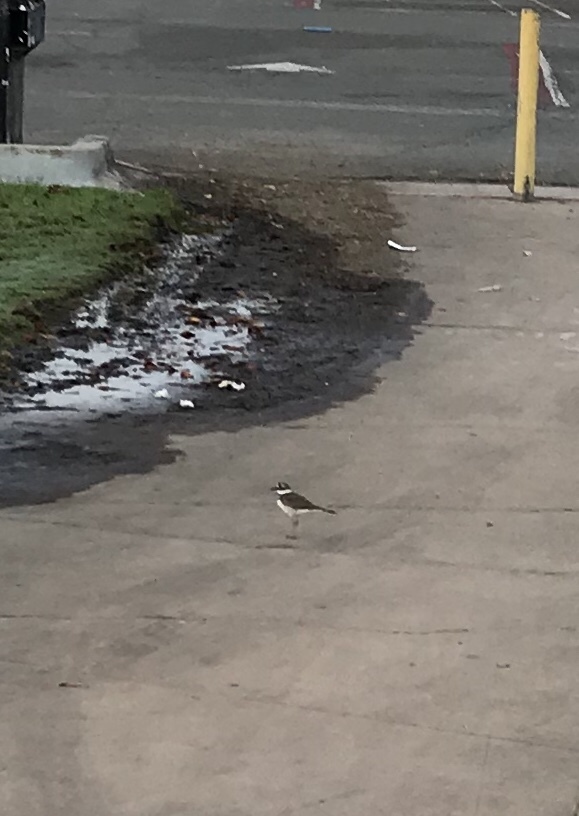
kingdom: Animalia
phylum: Chordata
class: Aves
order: Charadriiformes
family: Charadriidae
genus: Charadrius
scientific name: Charadrius vociferus
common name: Killdeer
